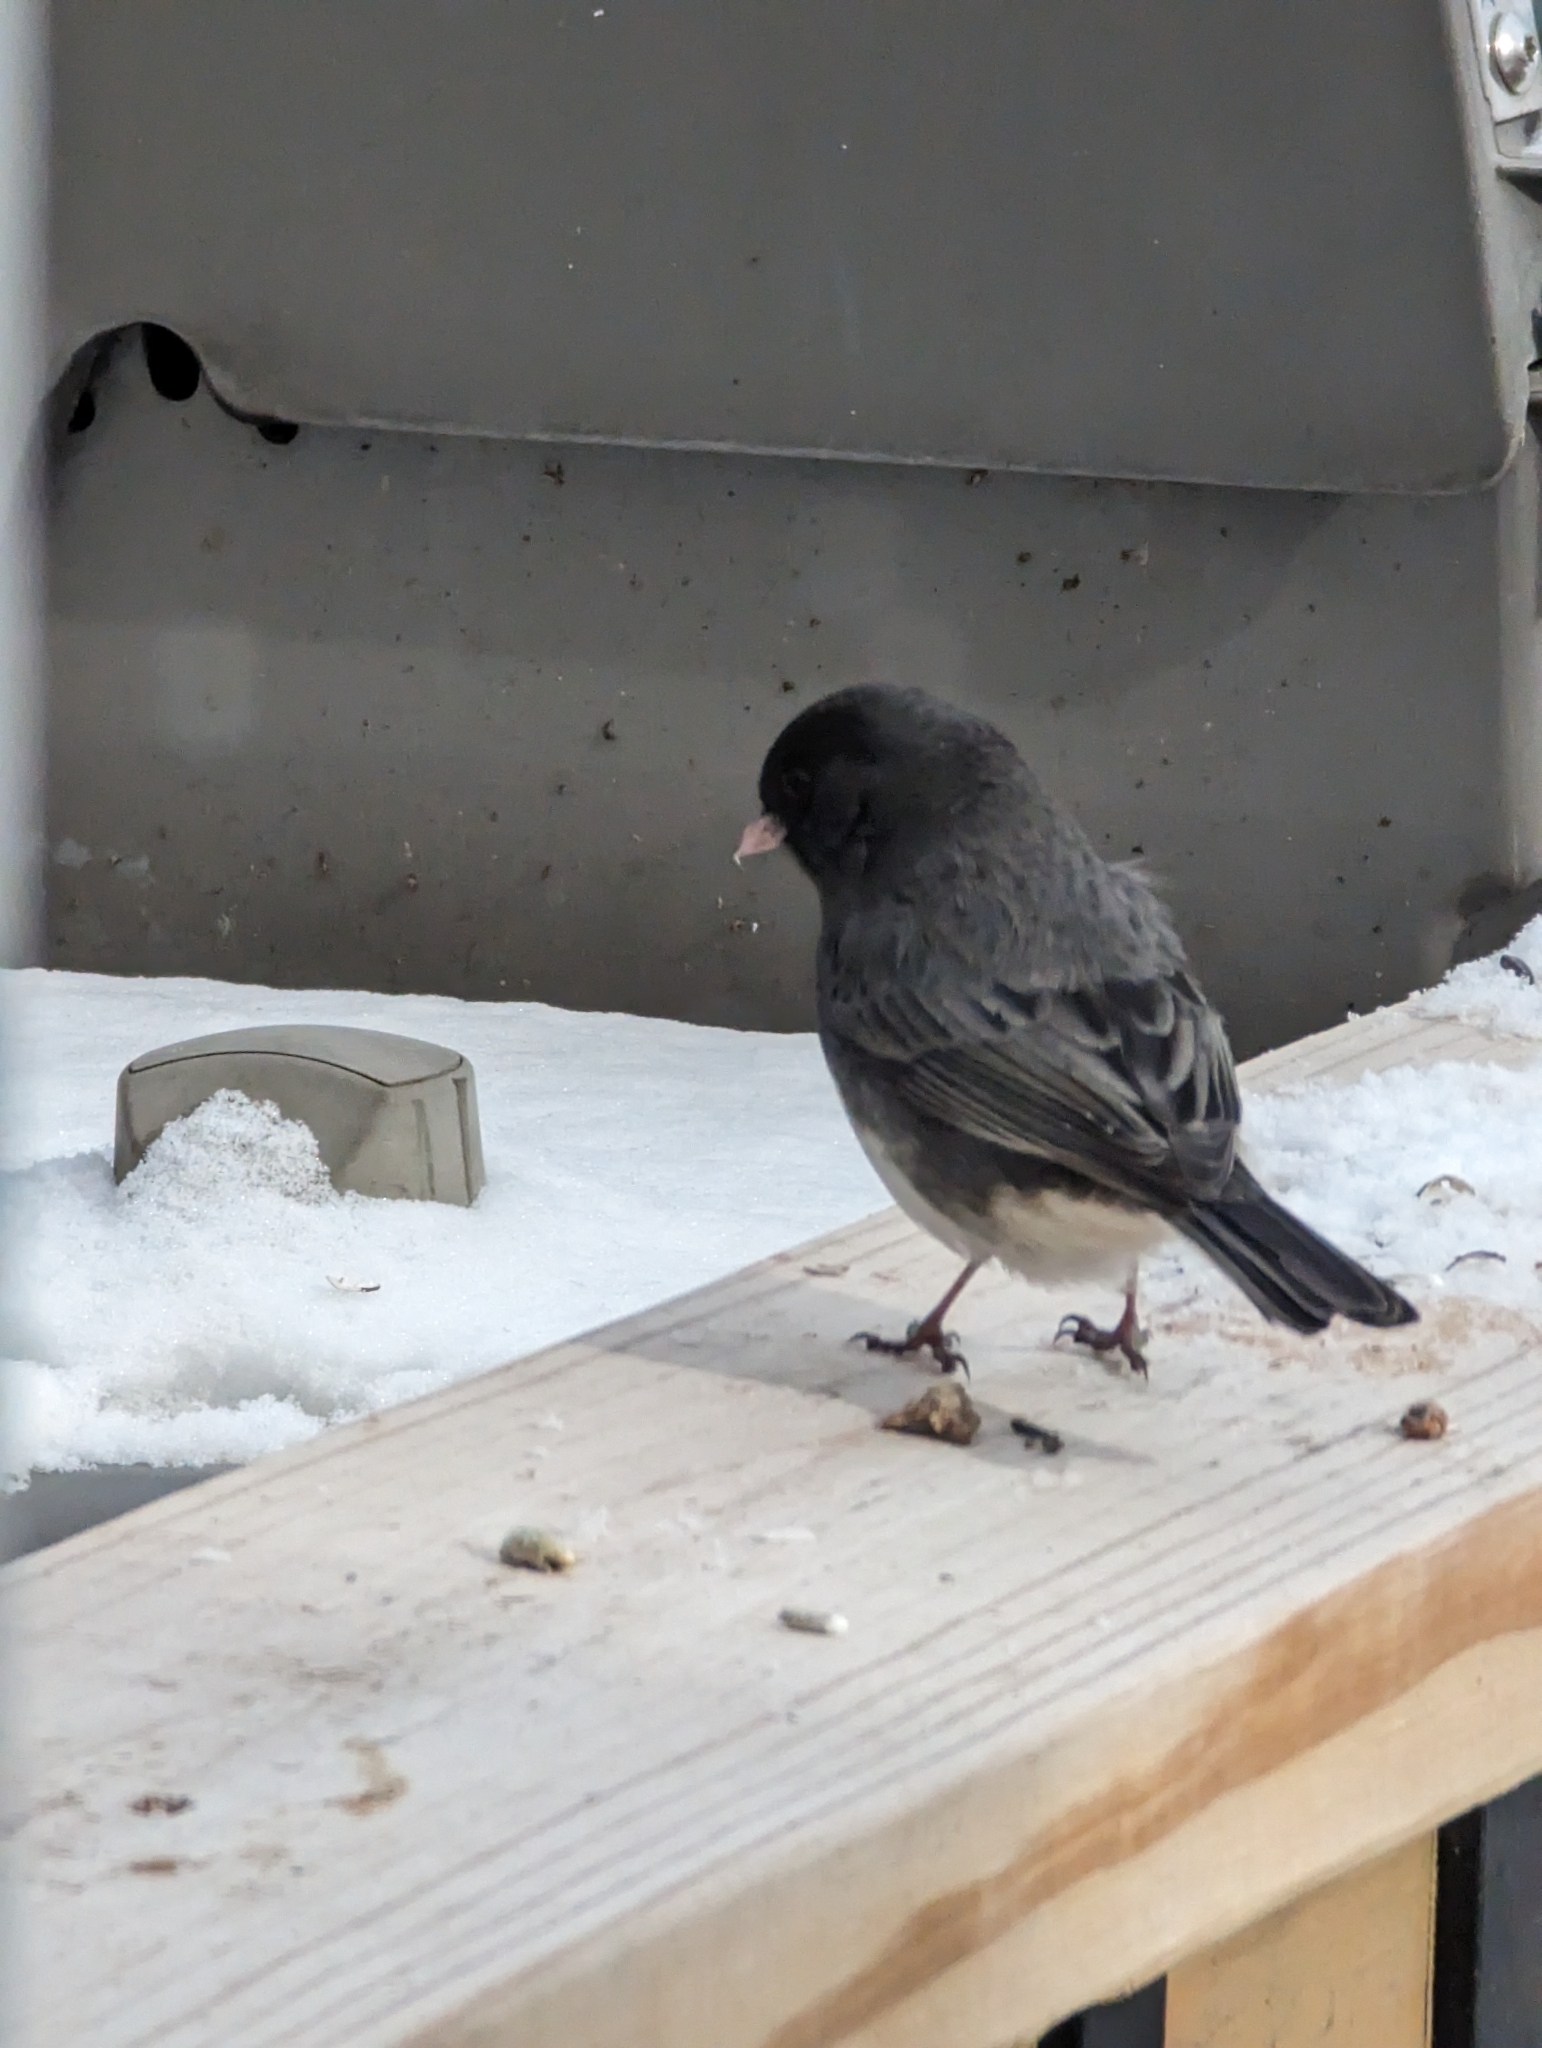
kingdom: Animalia
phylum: Chordata
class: Aves
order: Passeriformes
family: Passerellidae
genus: Junco
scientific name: Junco hyemalis
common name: Dark-eyed junco
